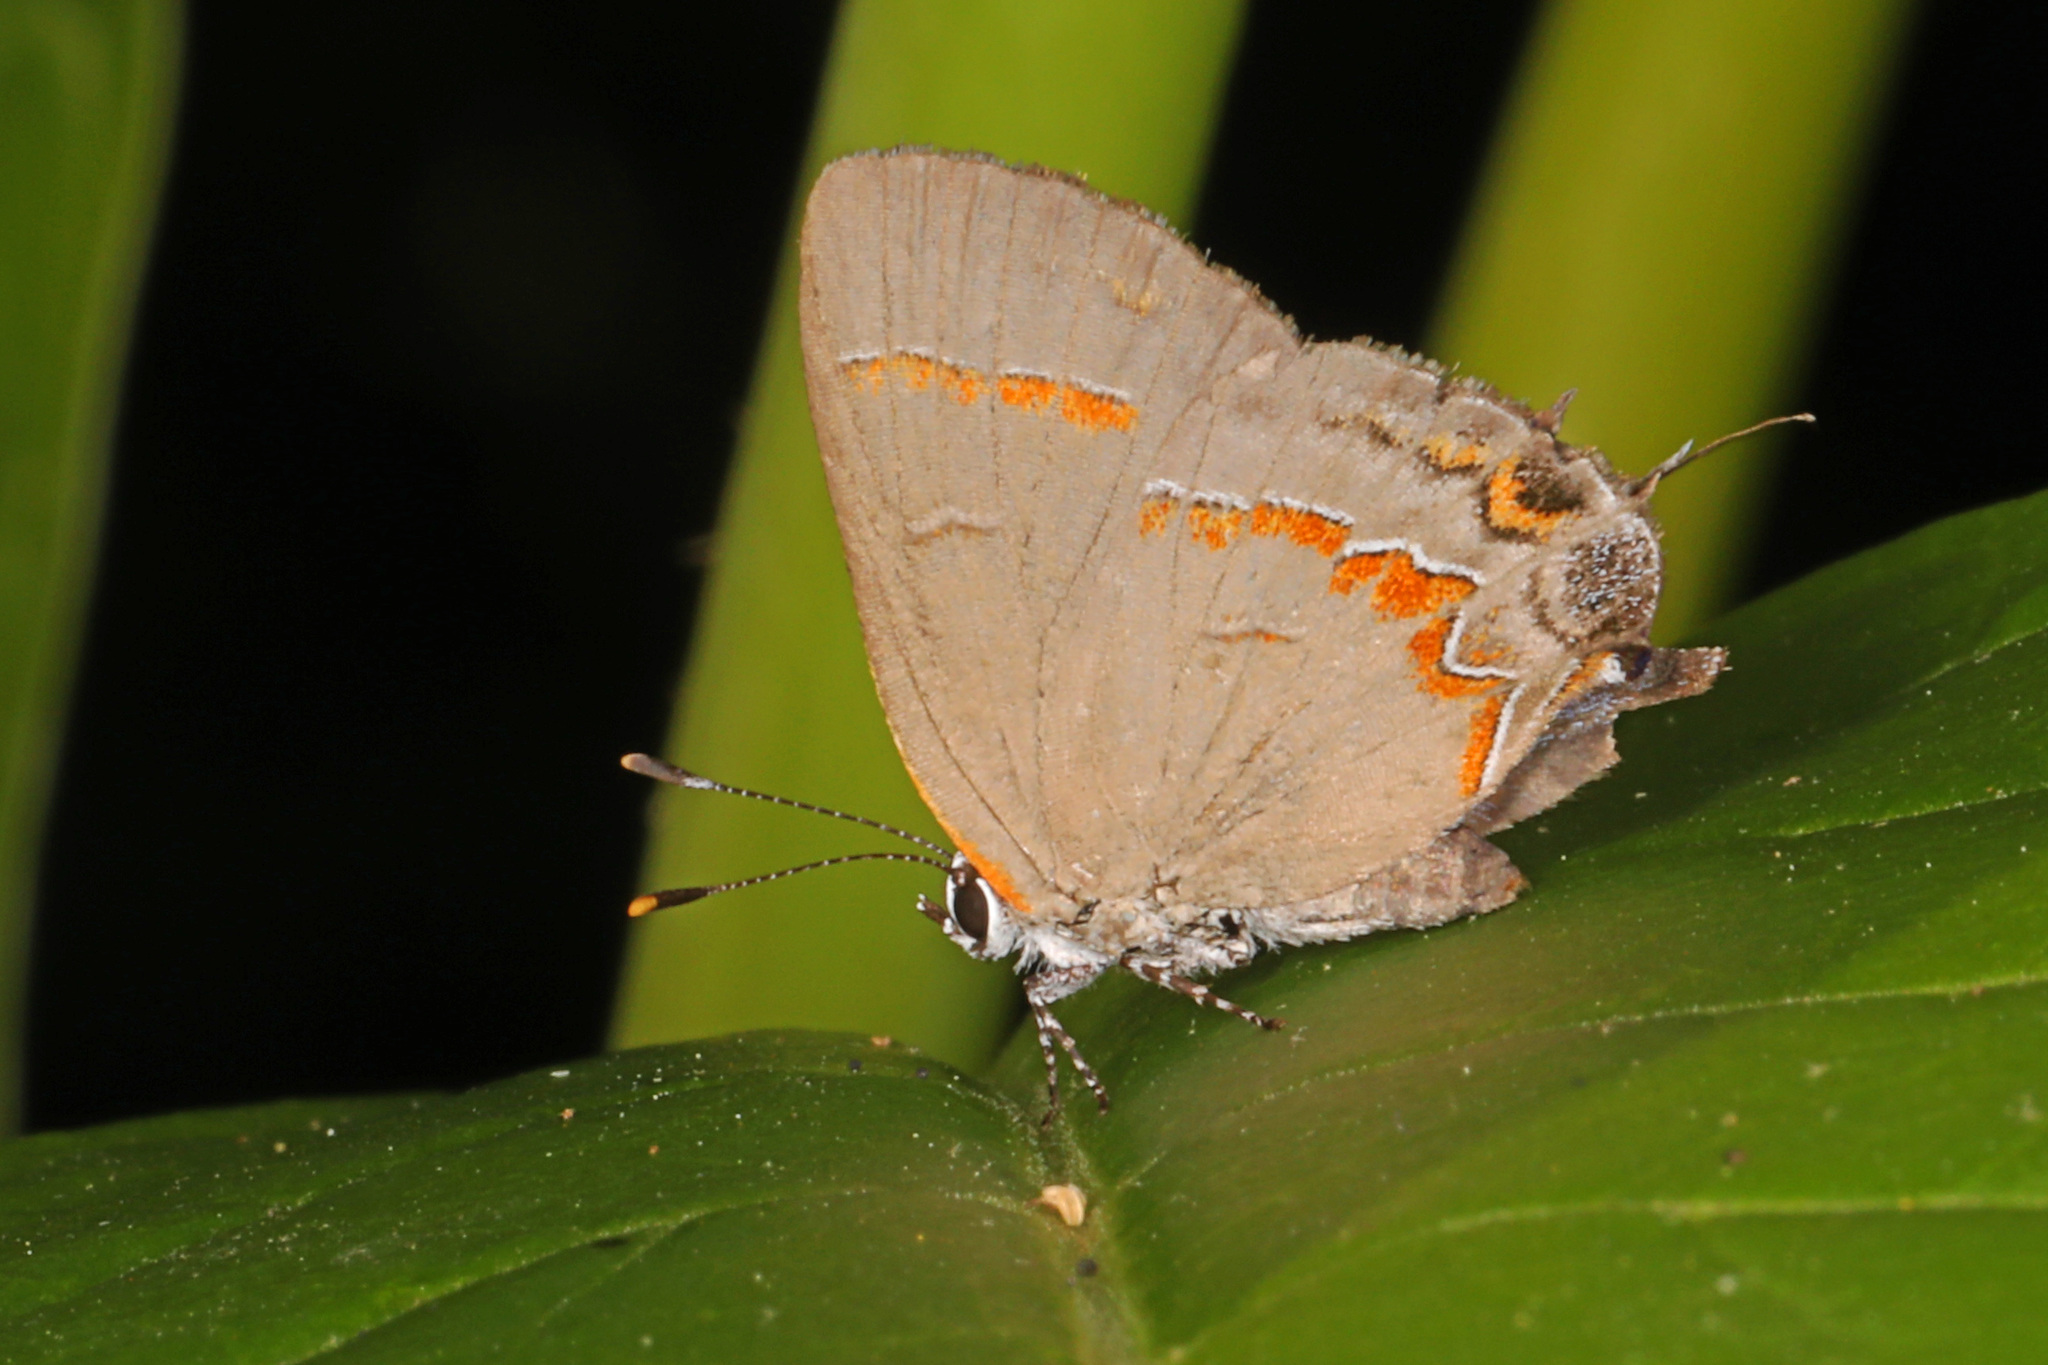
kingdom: Animalia
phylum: Arthropoda
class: Insecta
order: Lepidoptera
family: Lycaenidae
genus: Calycopis
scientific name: Calycopis cecrops
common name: Red-banded hairstreak
